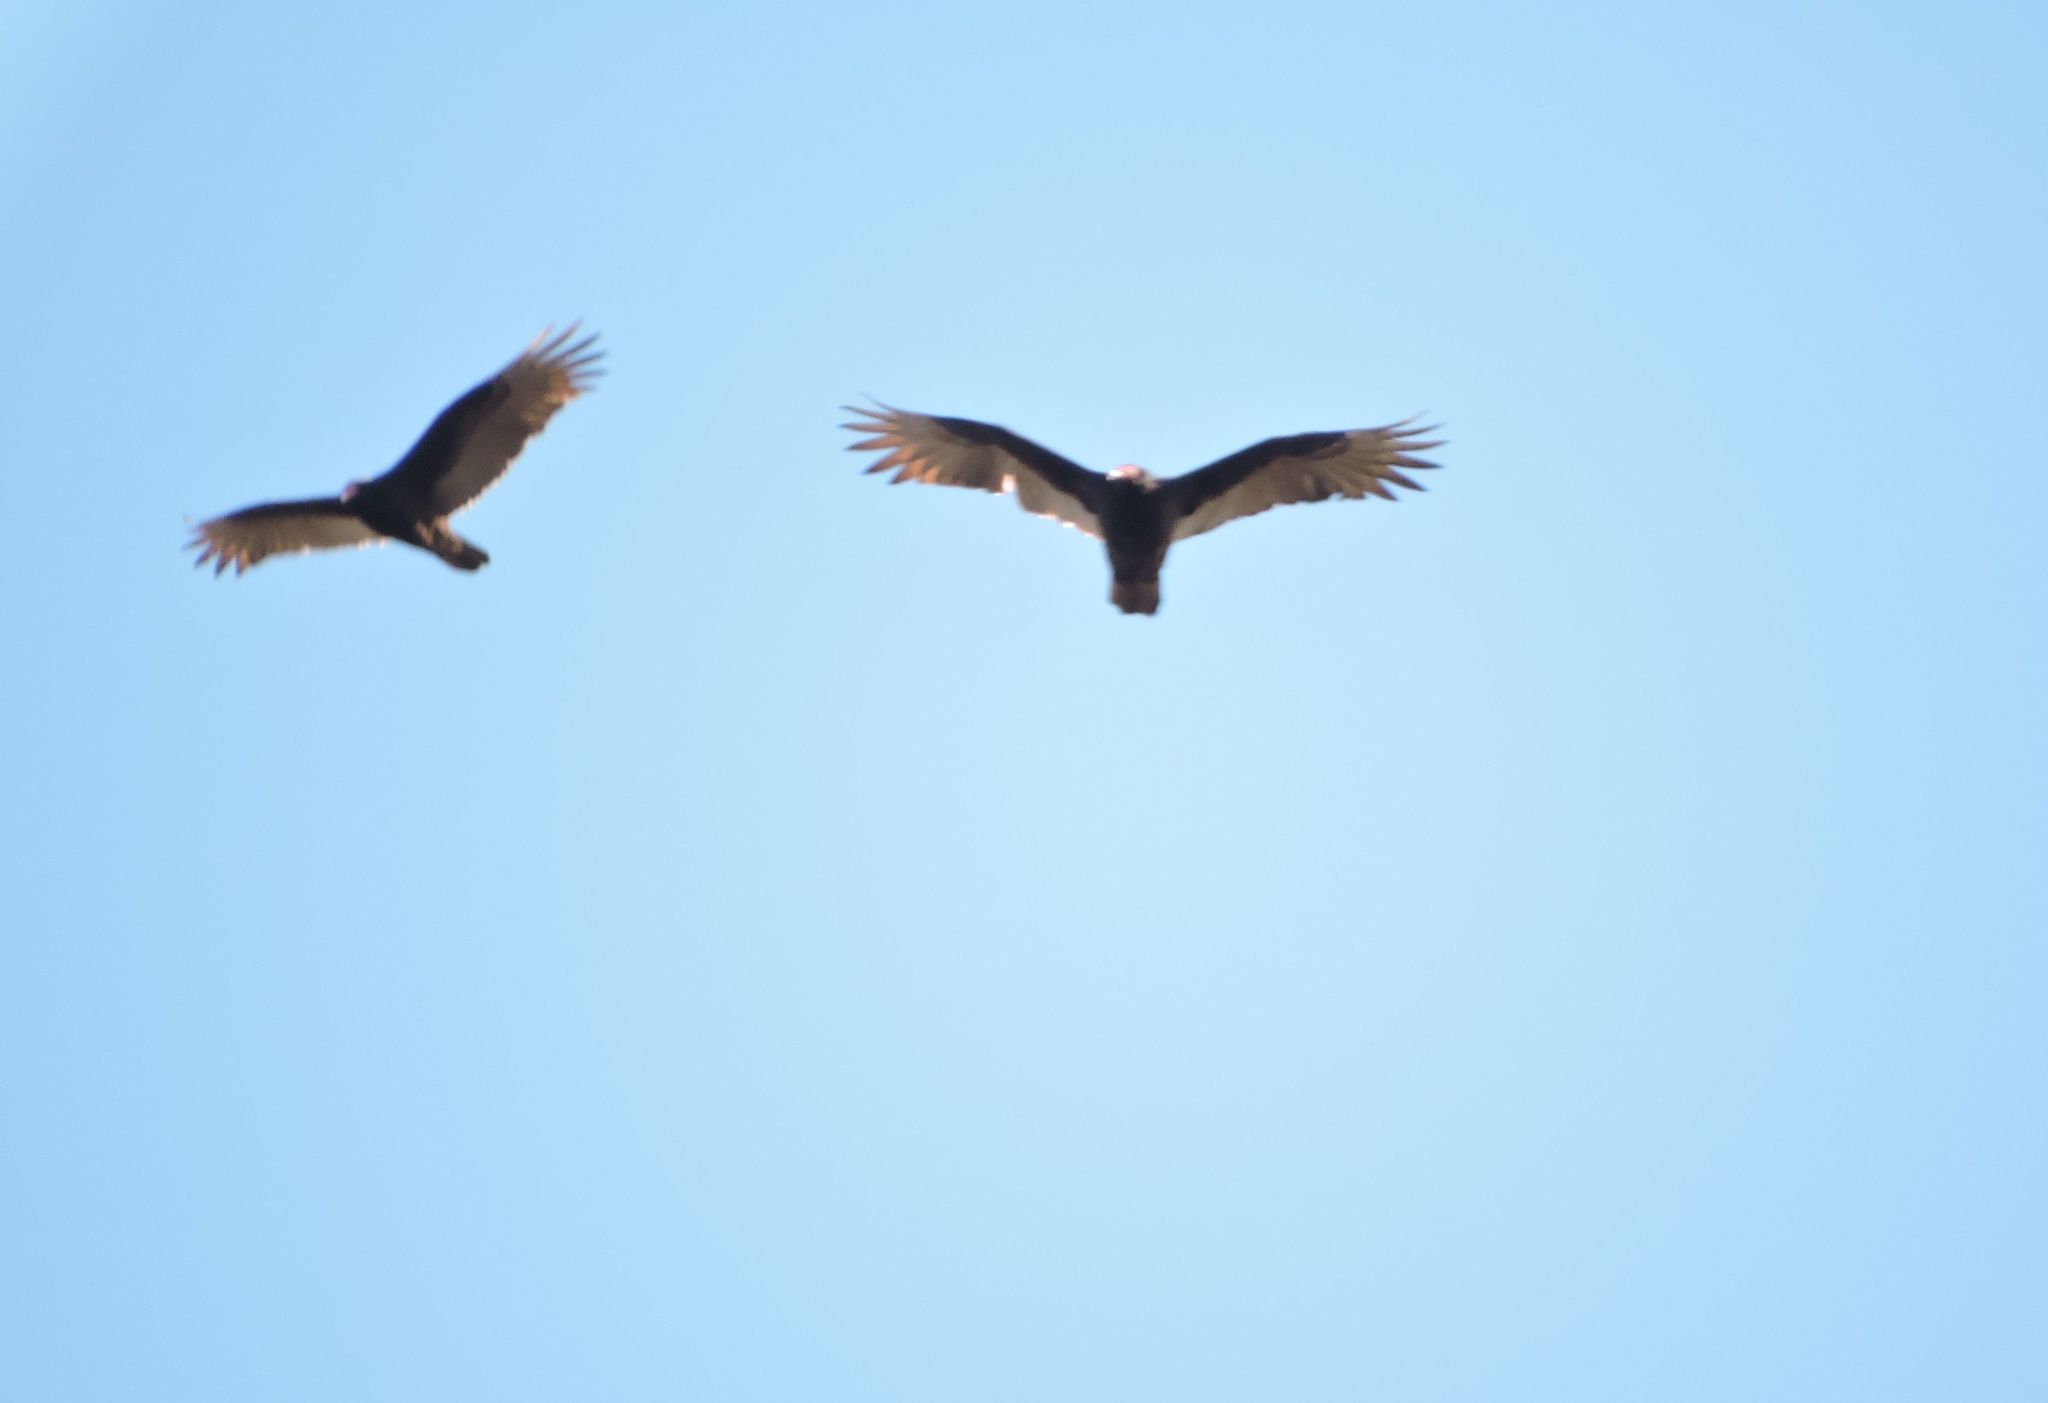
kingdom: Animalia
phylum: Chordata
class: Aves
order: Accipitriformes
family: Cathartidae
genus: Cathartes
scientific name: Cathartes aura
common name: Turkey vulture
